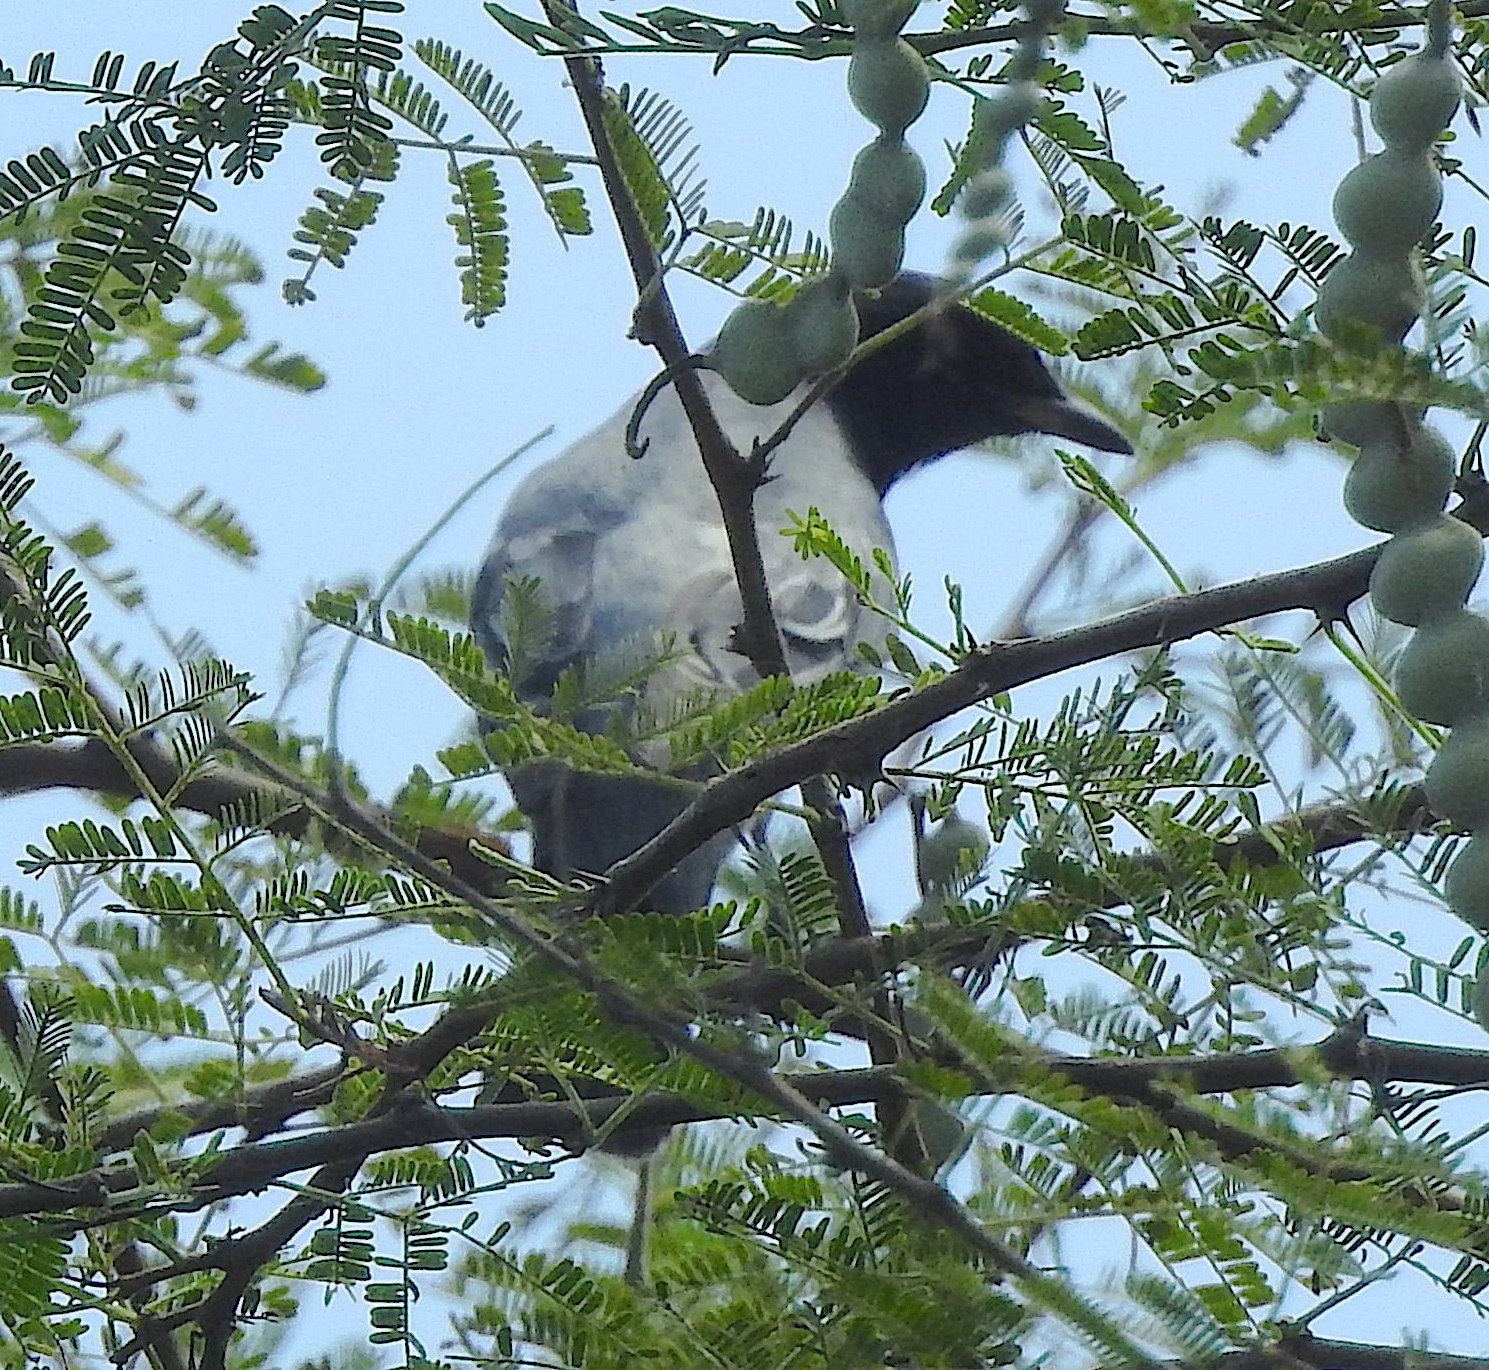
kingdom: Animalia
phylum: Chordata
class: Aves
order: Passeriformes
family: Campephagidae
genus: Coracina
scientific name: Coracina melanoptera
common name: Black-headed cuckooshrike
